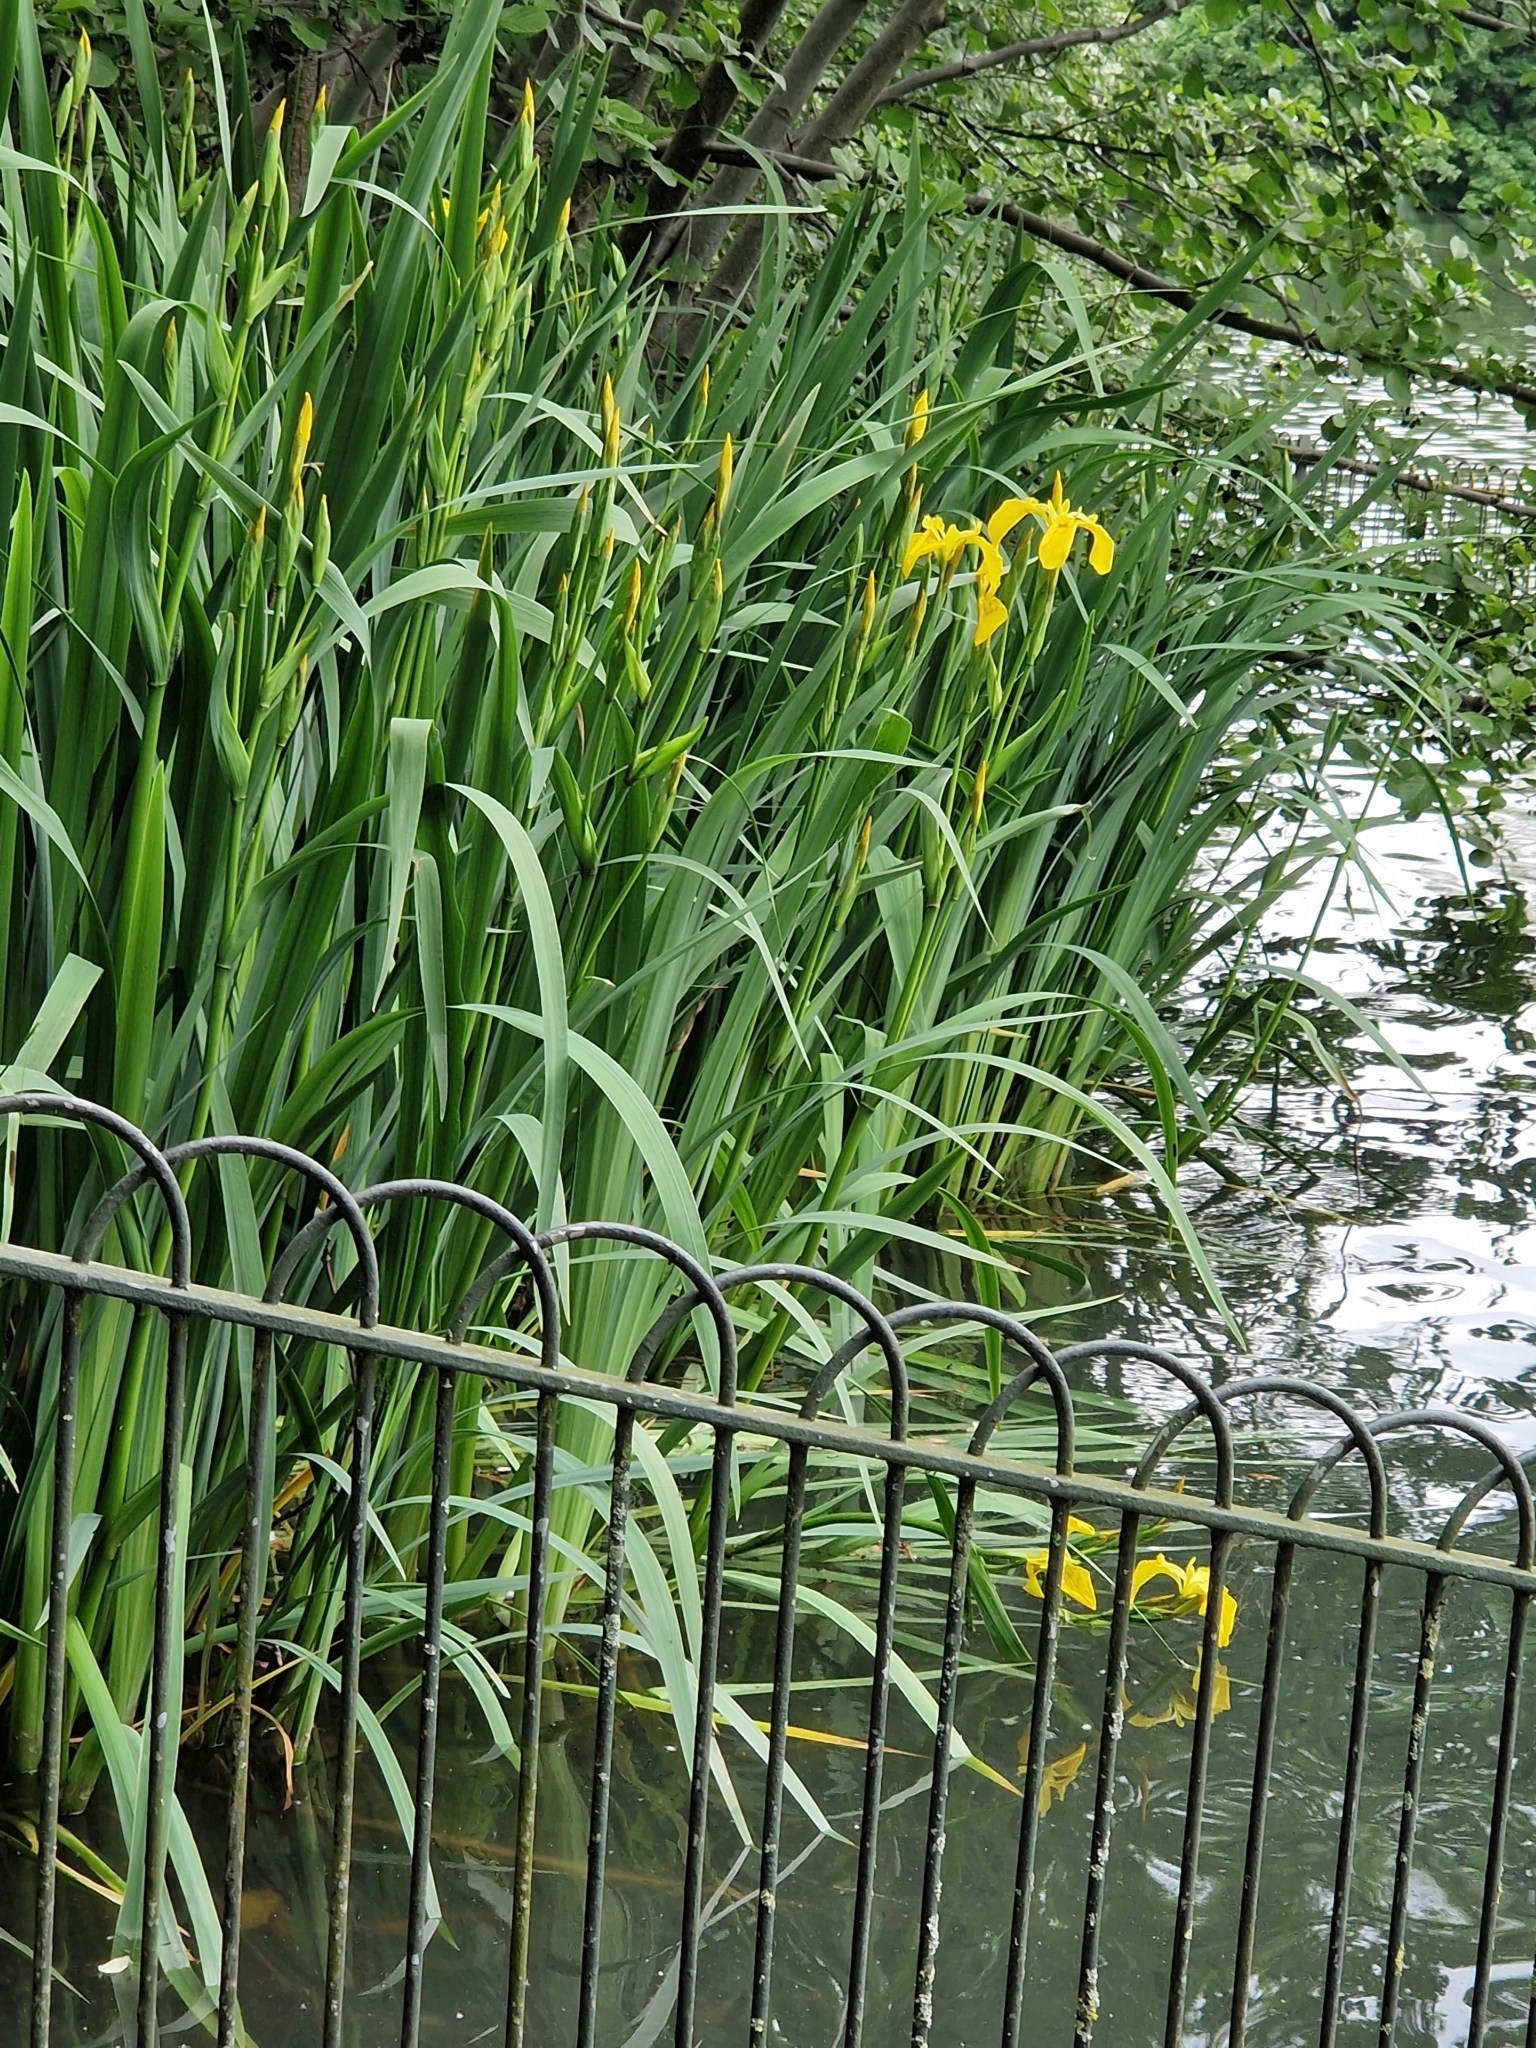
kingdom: Plantae
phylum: Tracheophyta
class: Liliopsida
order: Asparagales
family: Iridaceae
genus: Iris
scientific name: Iris pseudacorus
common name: Yellow flag
